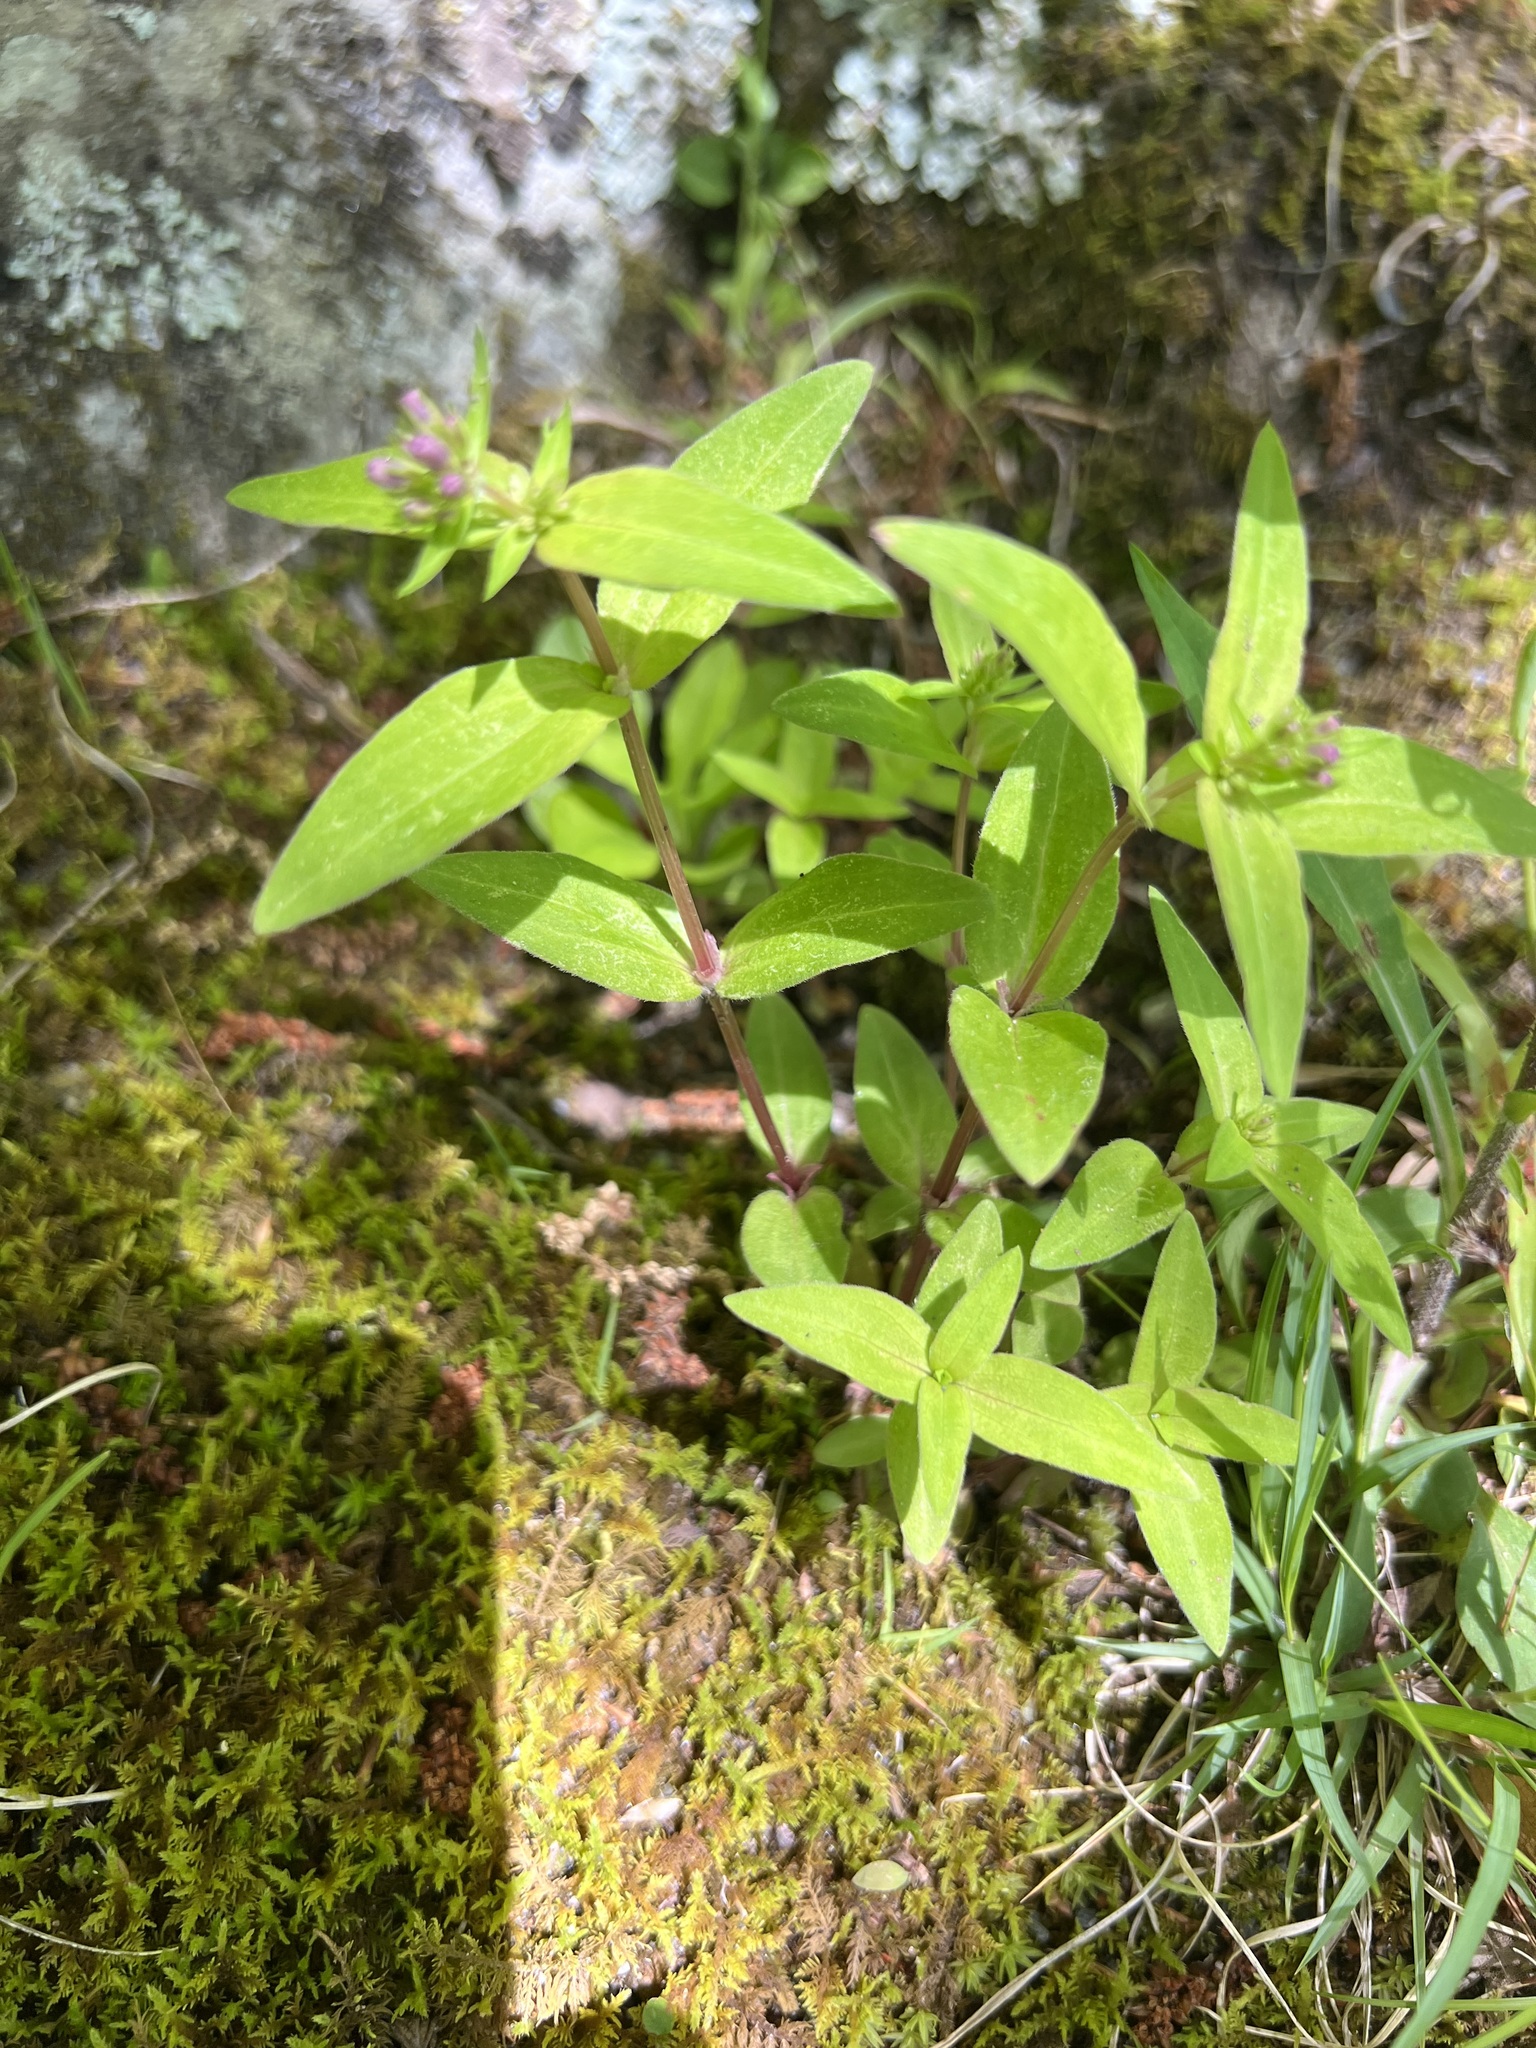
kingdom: Plantae
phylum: Tracheophyta
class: Magnoliopsida
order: Gentianales
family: Rubiaceae
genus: Houstonia
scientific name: Houstonia purpurea
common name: Summer bluet
